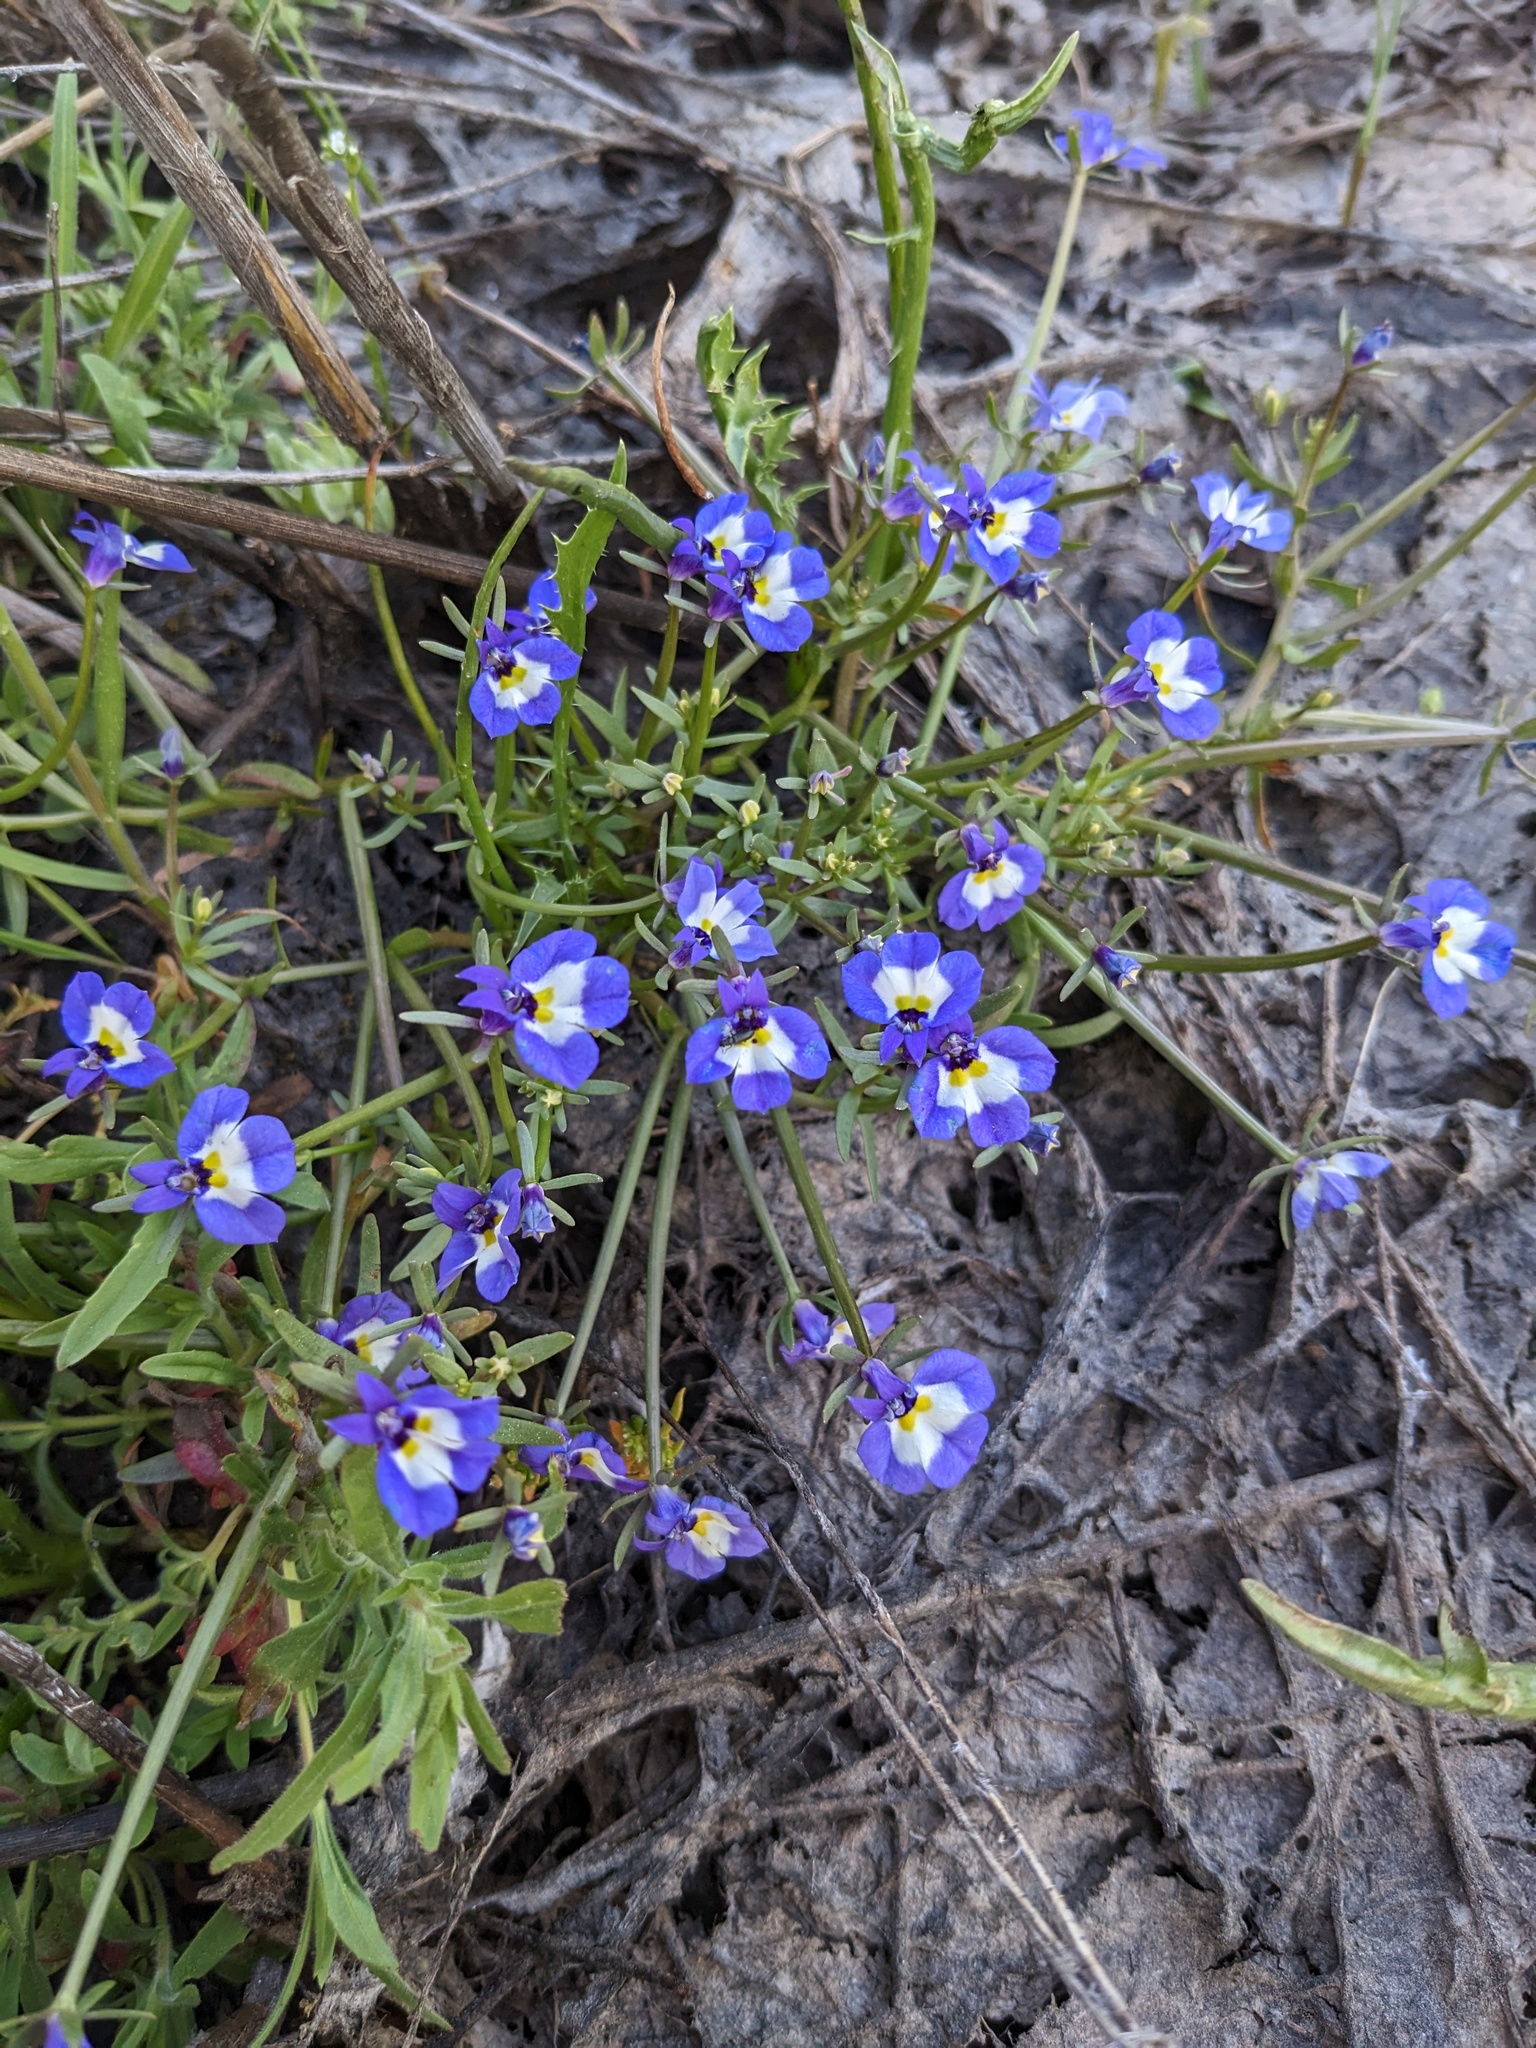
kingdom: Plantae
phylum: Tracheophyta
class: Magnoliopsida
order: Asterales
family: Campanulaceae
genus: Downingia
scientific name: Downingia bicornuta
